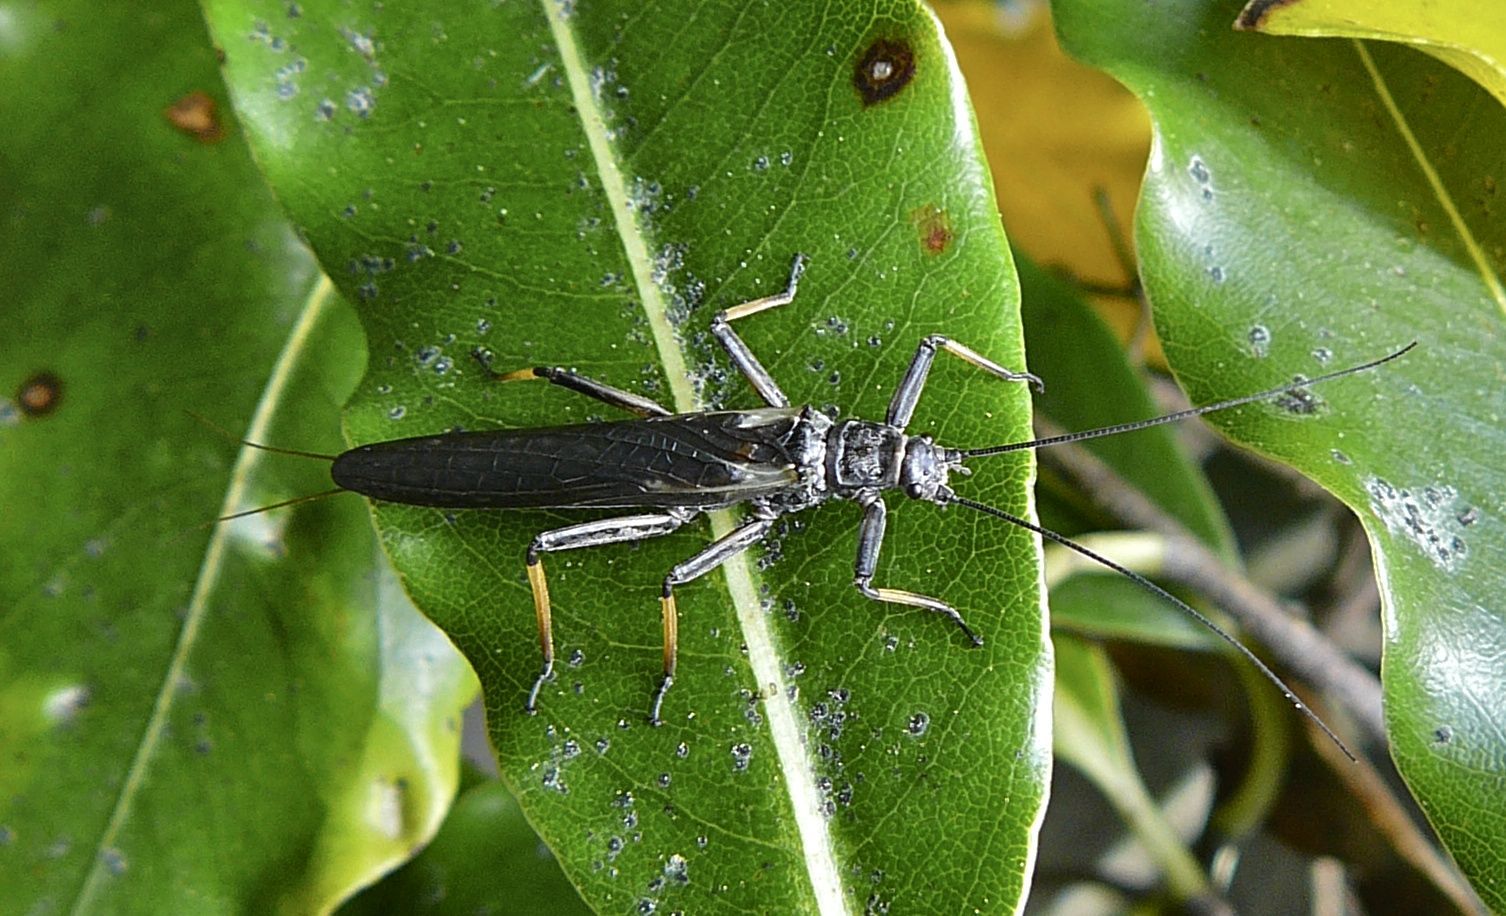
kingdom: Animalia
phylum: Arthropoda
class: Insecta
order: Plecoptera
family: Gripopterygidae
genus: Zelandoperla
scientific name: Zelandoperla tillyardi
